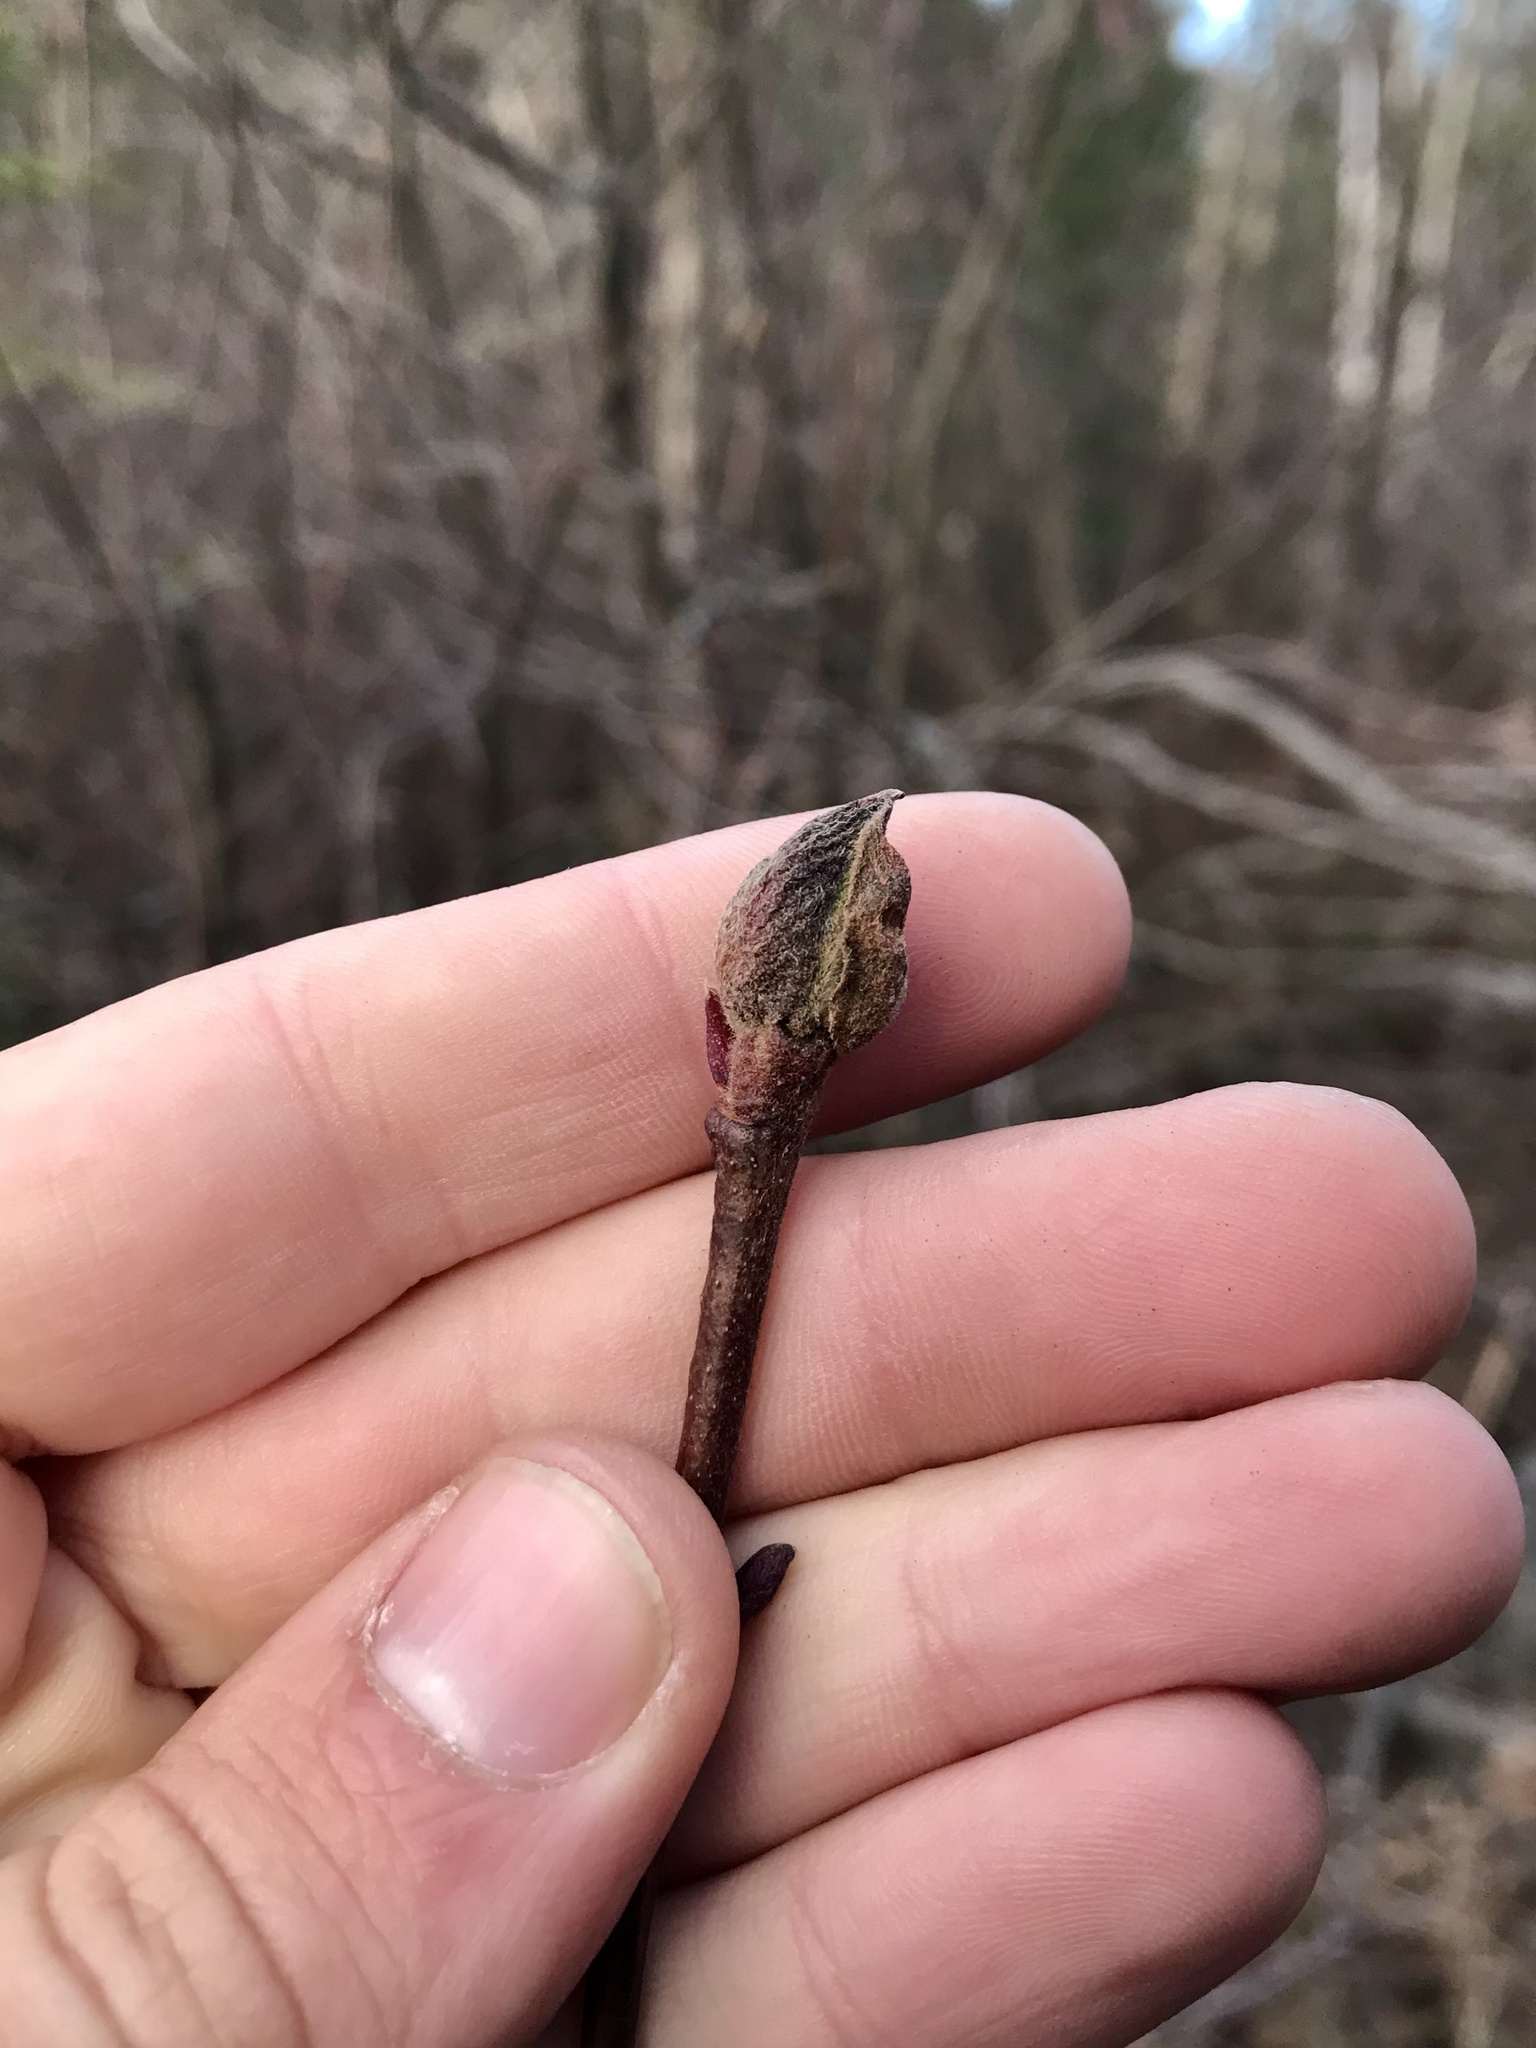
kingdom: Animalia
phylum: Arthropoda
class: Insecta
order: Diptera
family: Cecidomyiidae
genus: Dasineura
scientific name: Dasineura serrulatae
